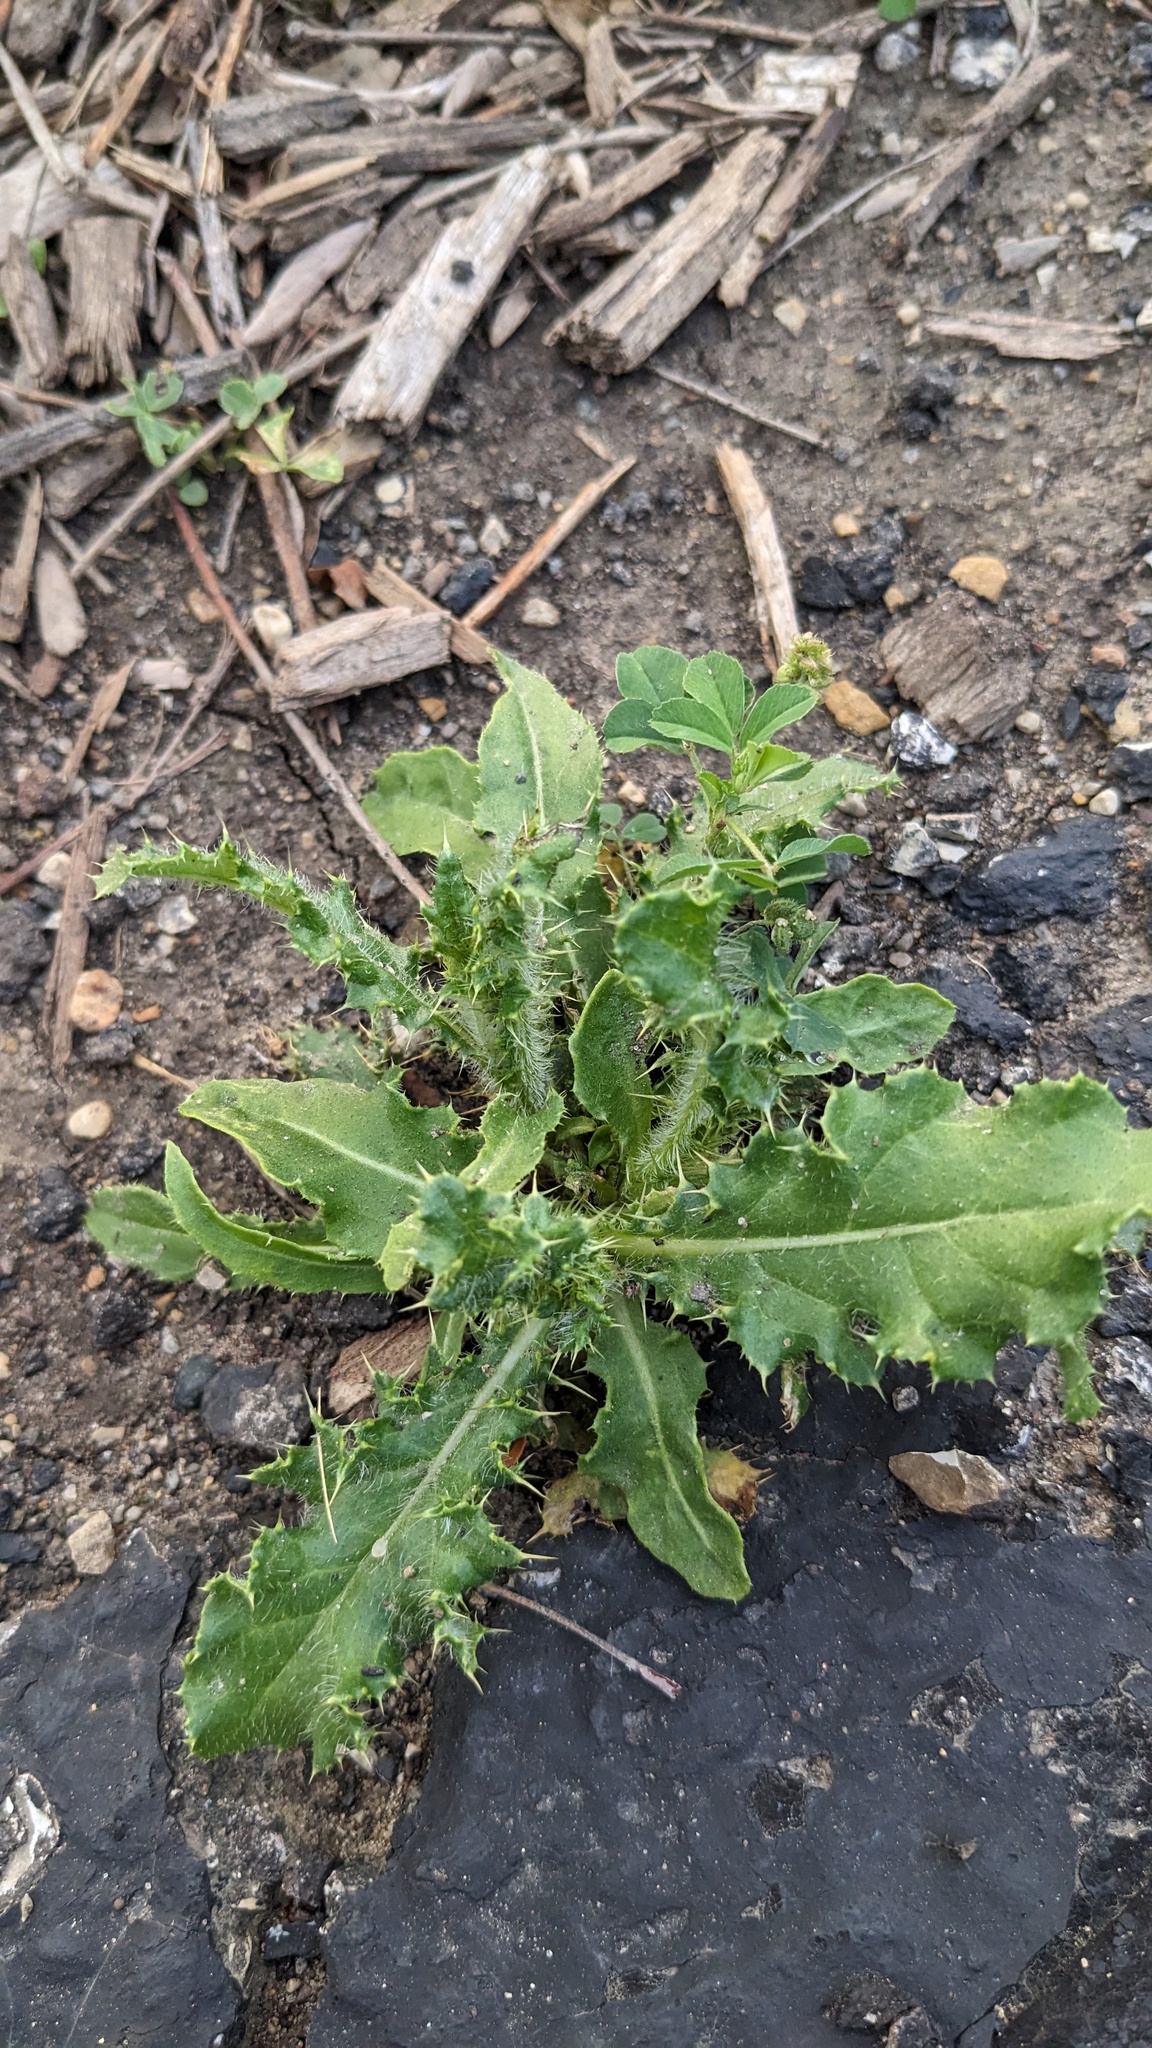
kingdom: Plantae
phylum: Tracheophyta
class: Magnoliopsida
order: Asterales
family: Asteraceae
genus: Cirsium
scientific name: Cirsium arvense
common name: Creeping thistle
